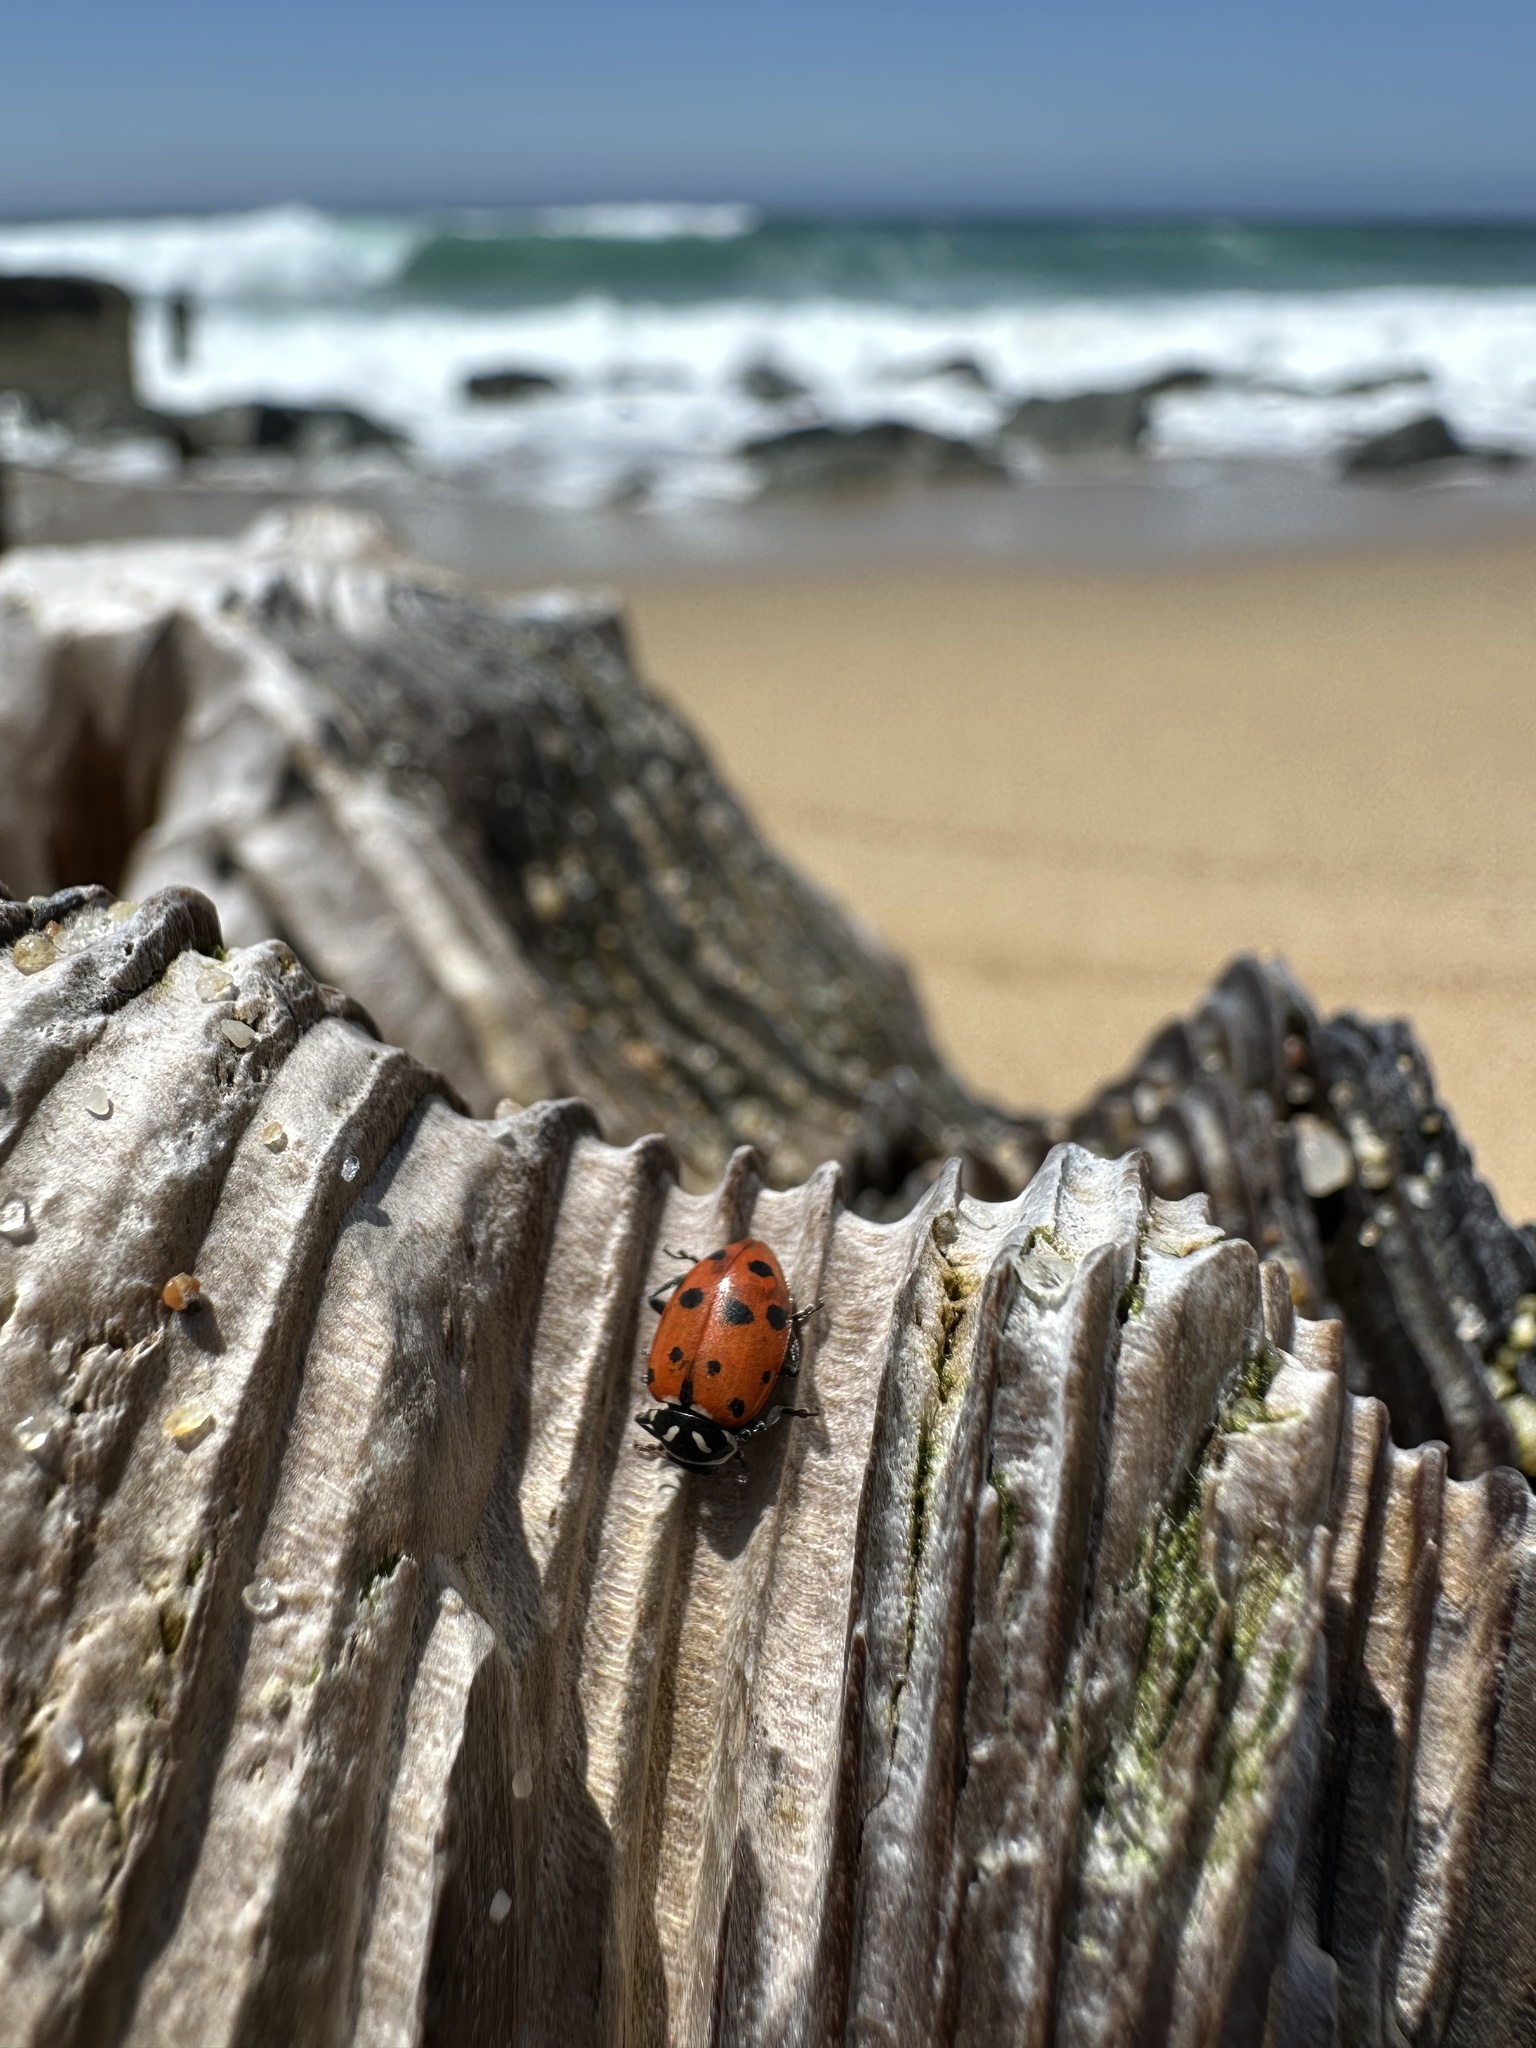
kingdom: Animalia
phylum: Arthropoda
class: Insecta
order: Coleoptera
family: Coccinellidae
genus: Hippodamia
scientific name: Hippodamia convergens
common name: Convergent lady beetle
